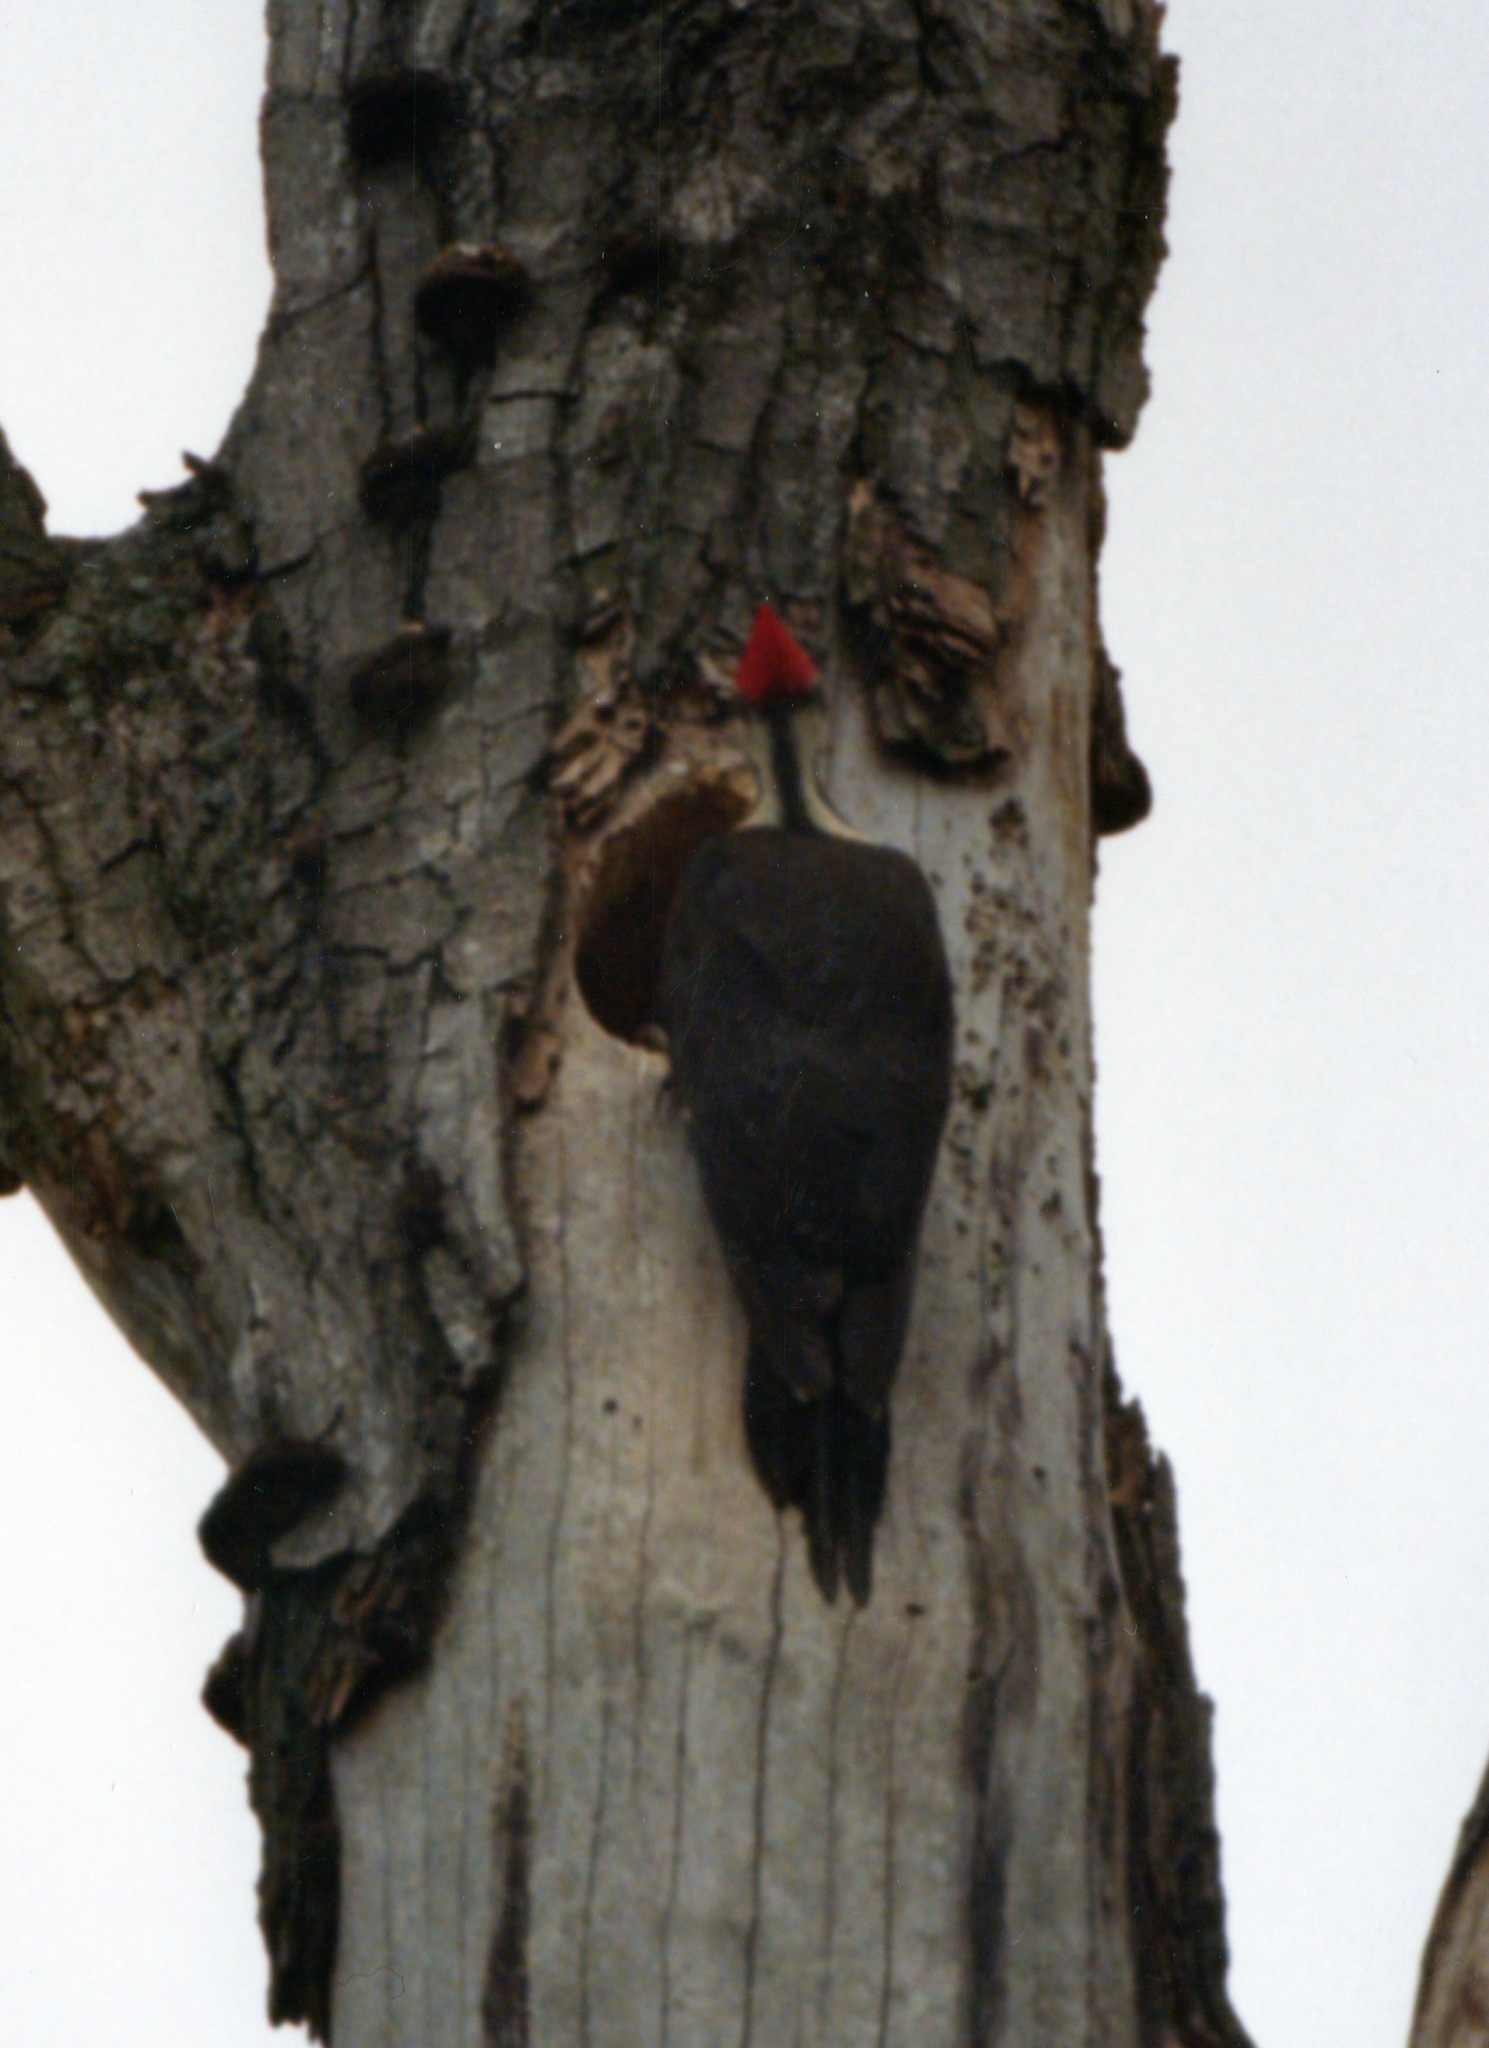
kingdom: Animalia
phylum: Chordata
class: Aves
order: Piciformes
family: Picidae
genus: Dryocopus
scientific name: Dryocopus pileatus
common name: Pileated woodpecker
